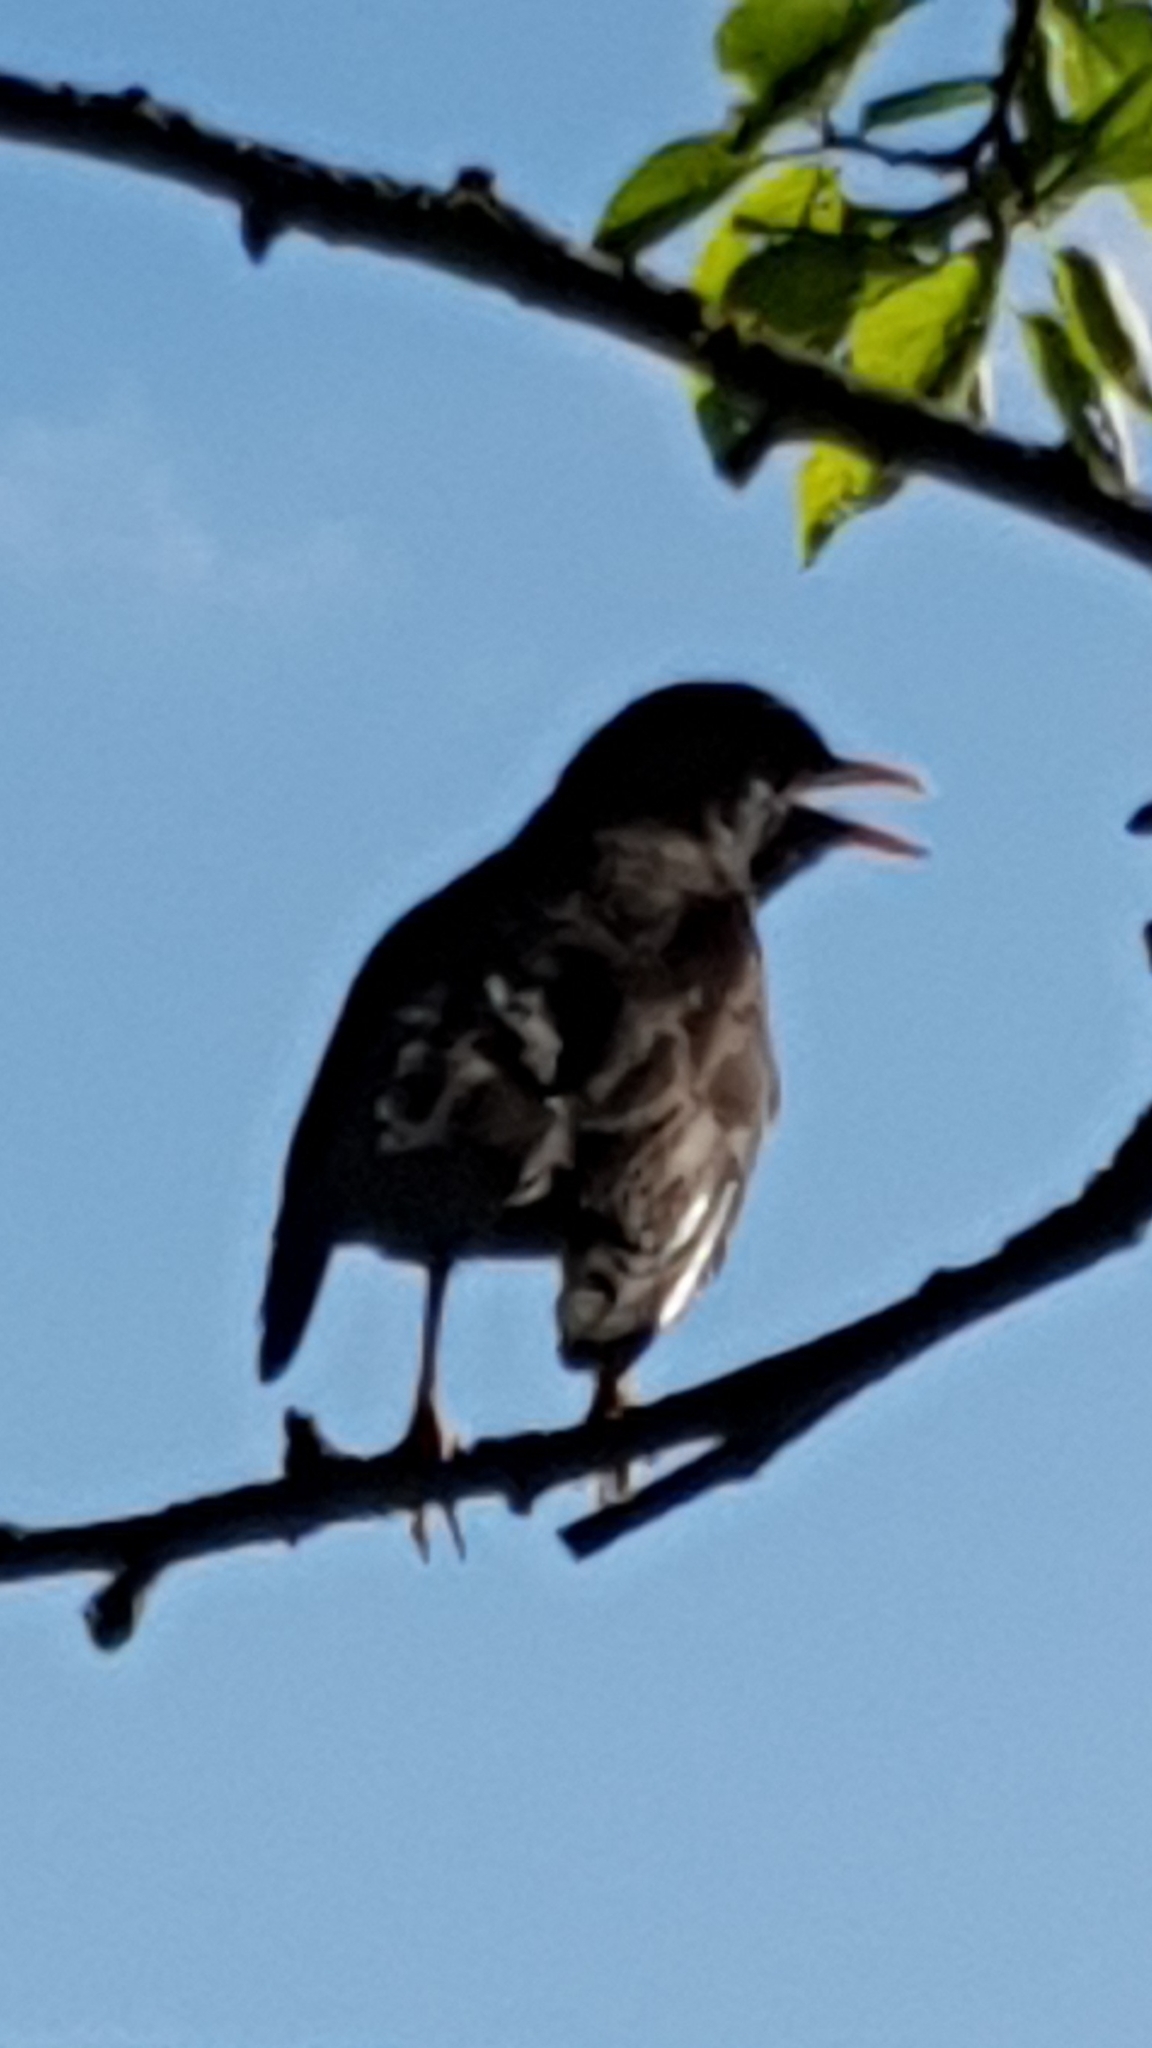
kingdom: Animalia
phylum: Chordata
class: Aves
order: Passeriformes
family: Turdidae
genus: Turdus
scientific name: Turdus merula
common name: Common blackbird
